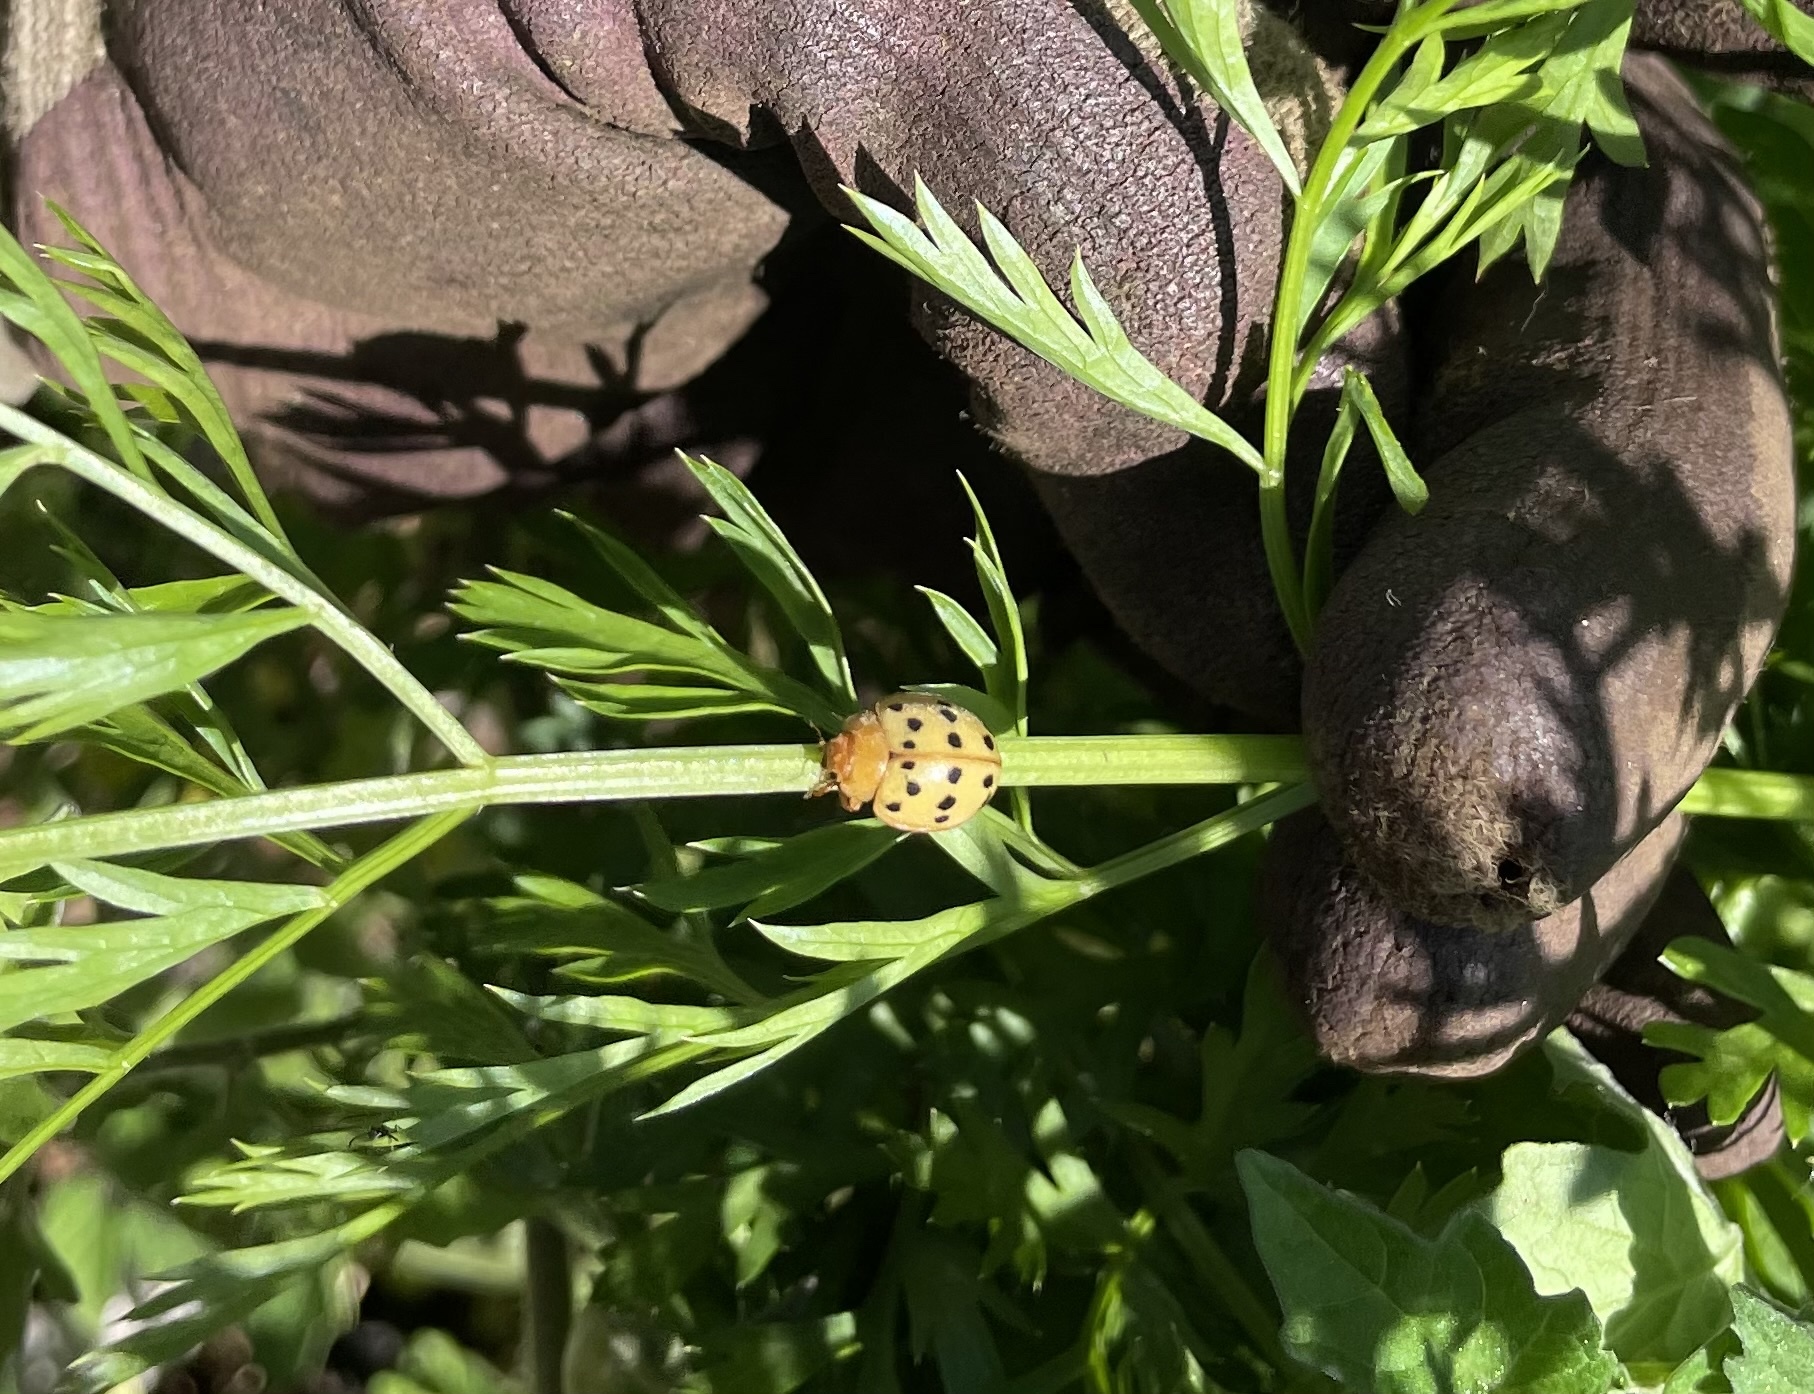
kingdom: Animalia
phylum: Arthropoda
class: Insecta
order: Coleoptera
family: Coccinellidae
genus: Epilachna
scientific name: Epilachna varivestis
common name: Ladybird beetle
